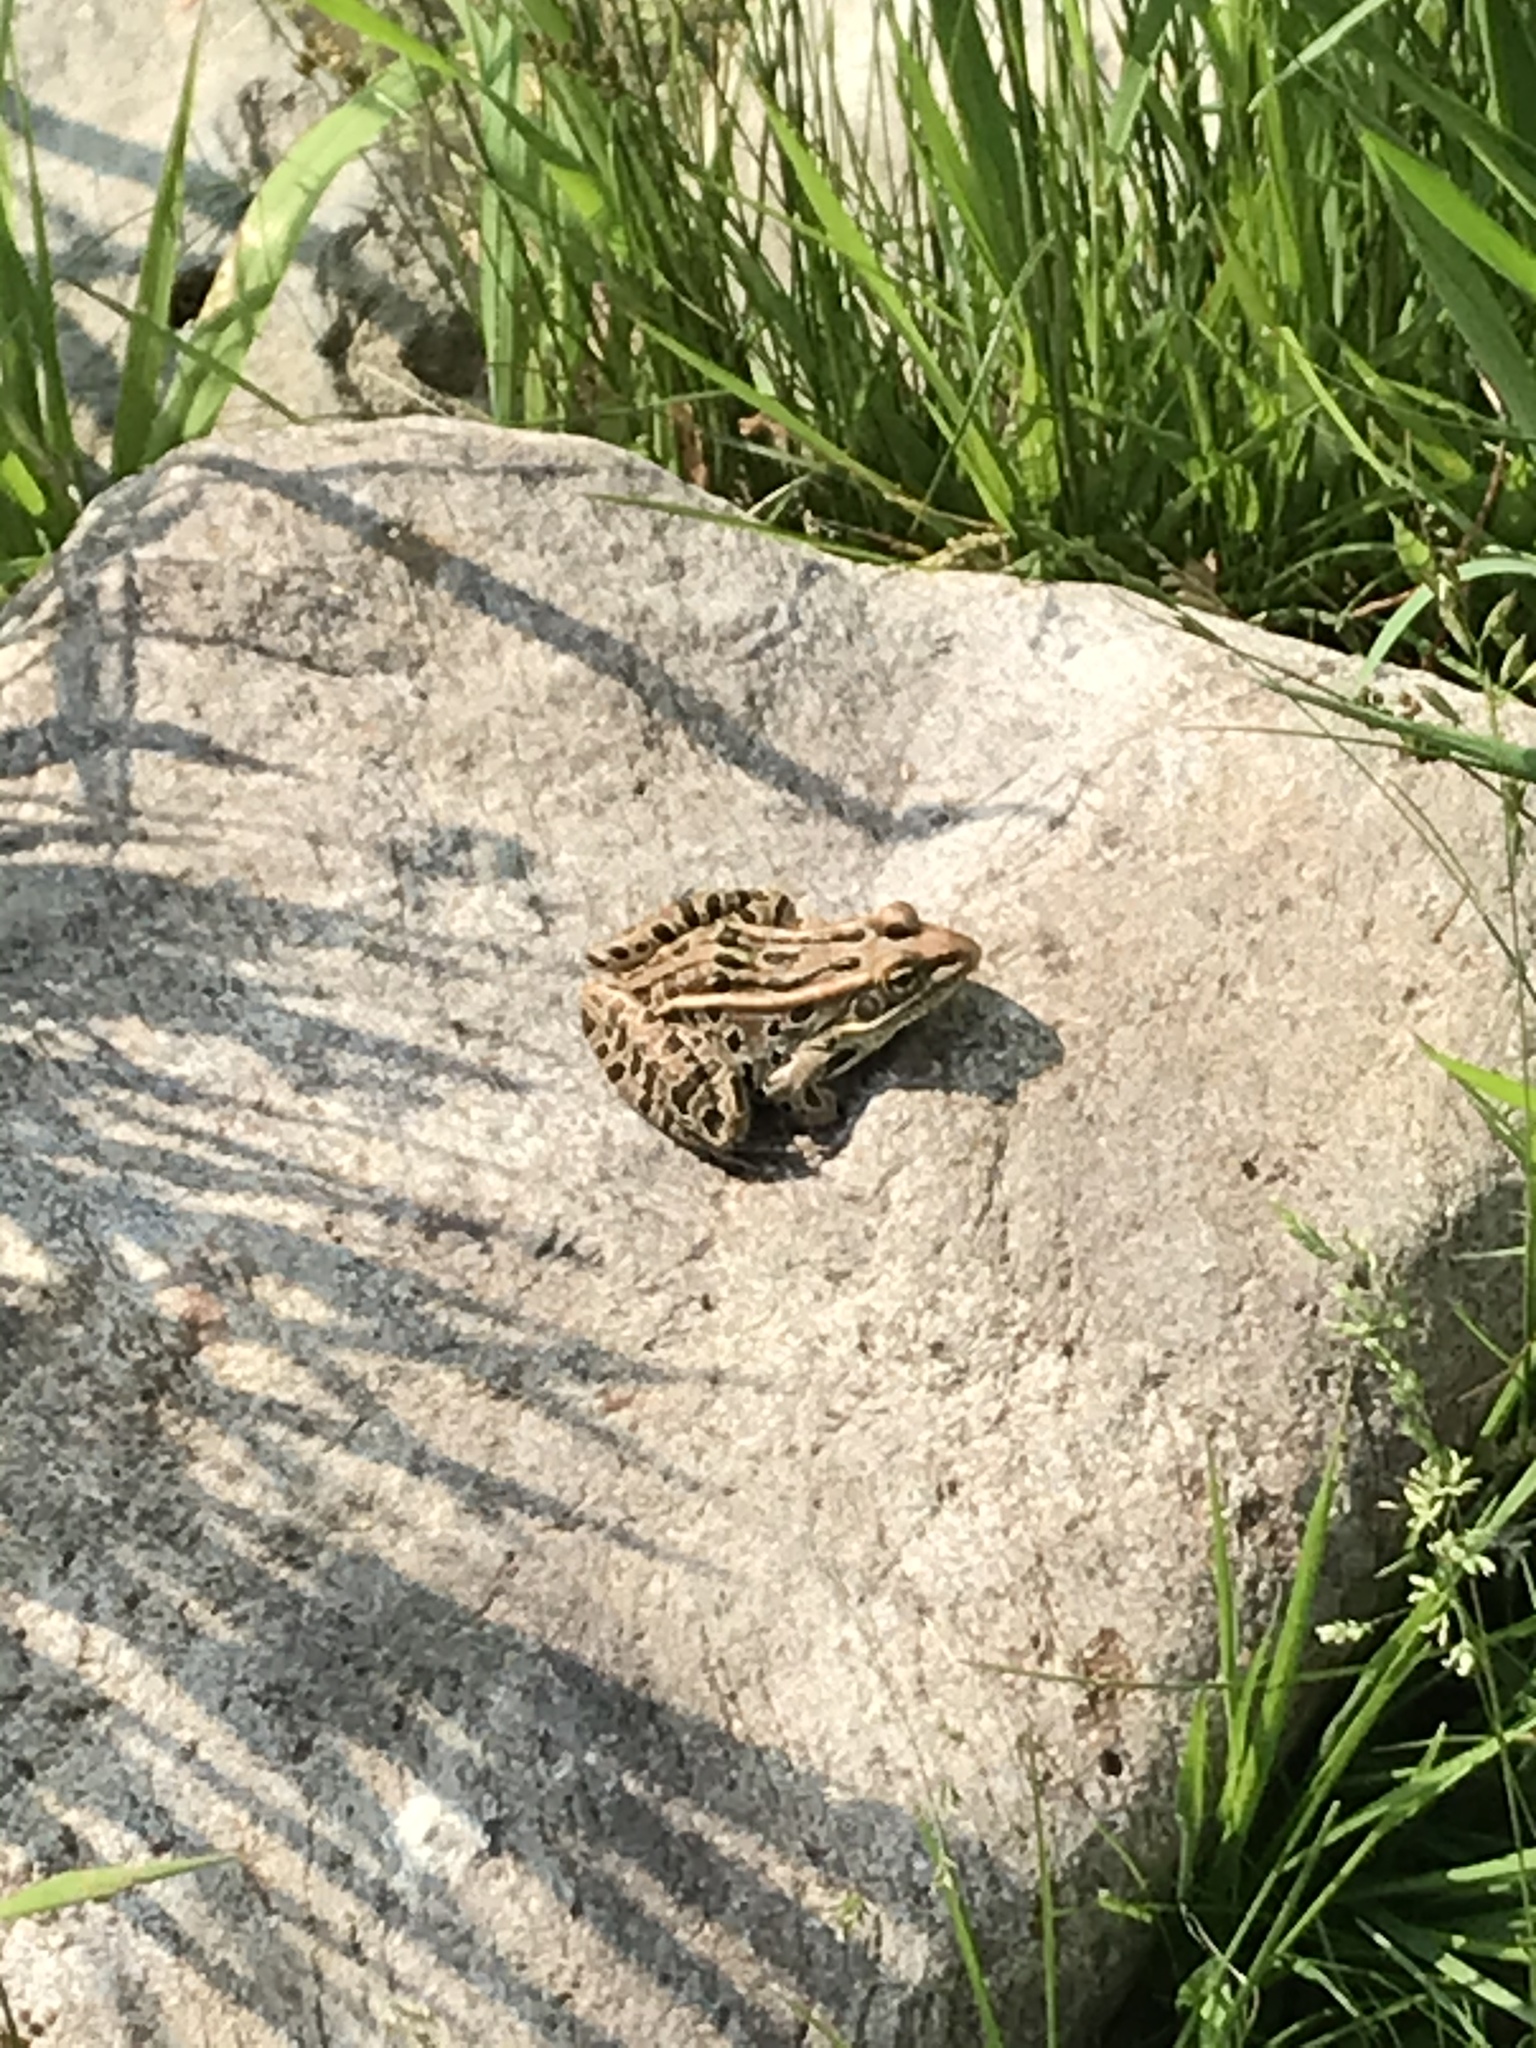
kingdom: Animalia
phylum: Chordata
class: Amphibia
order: Anura
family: Ranidae
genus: Lithobates
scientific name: Lithobates pipiens
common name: Northern leopard frog
